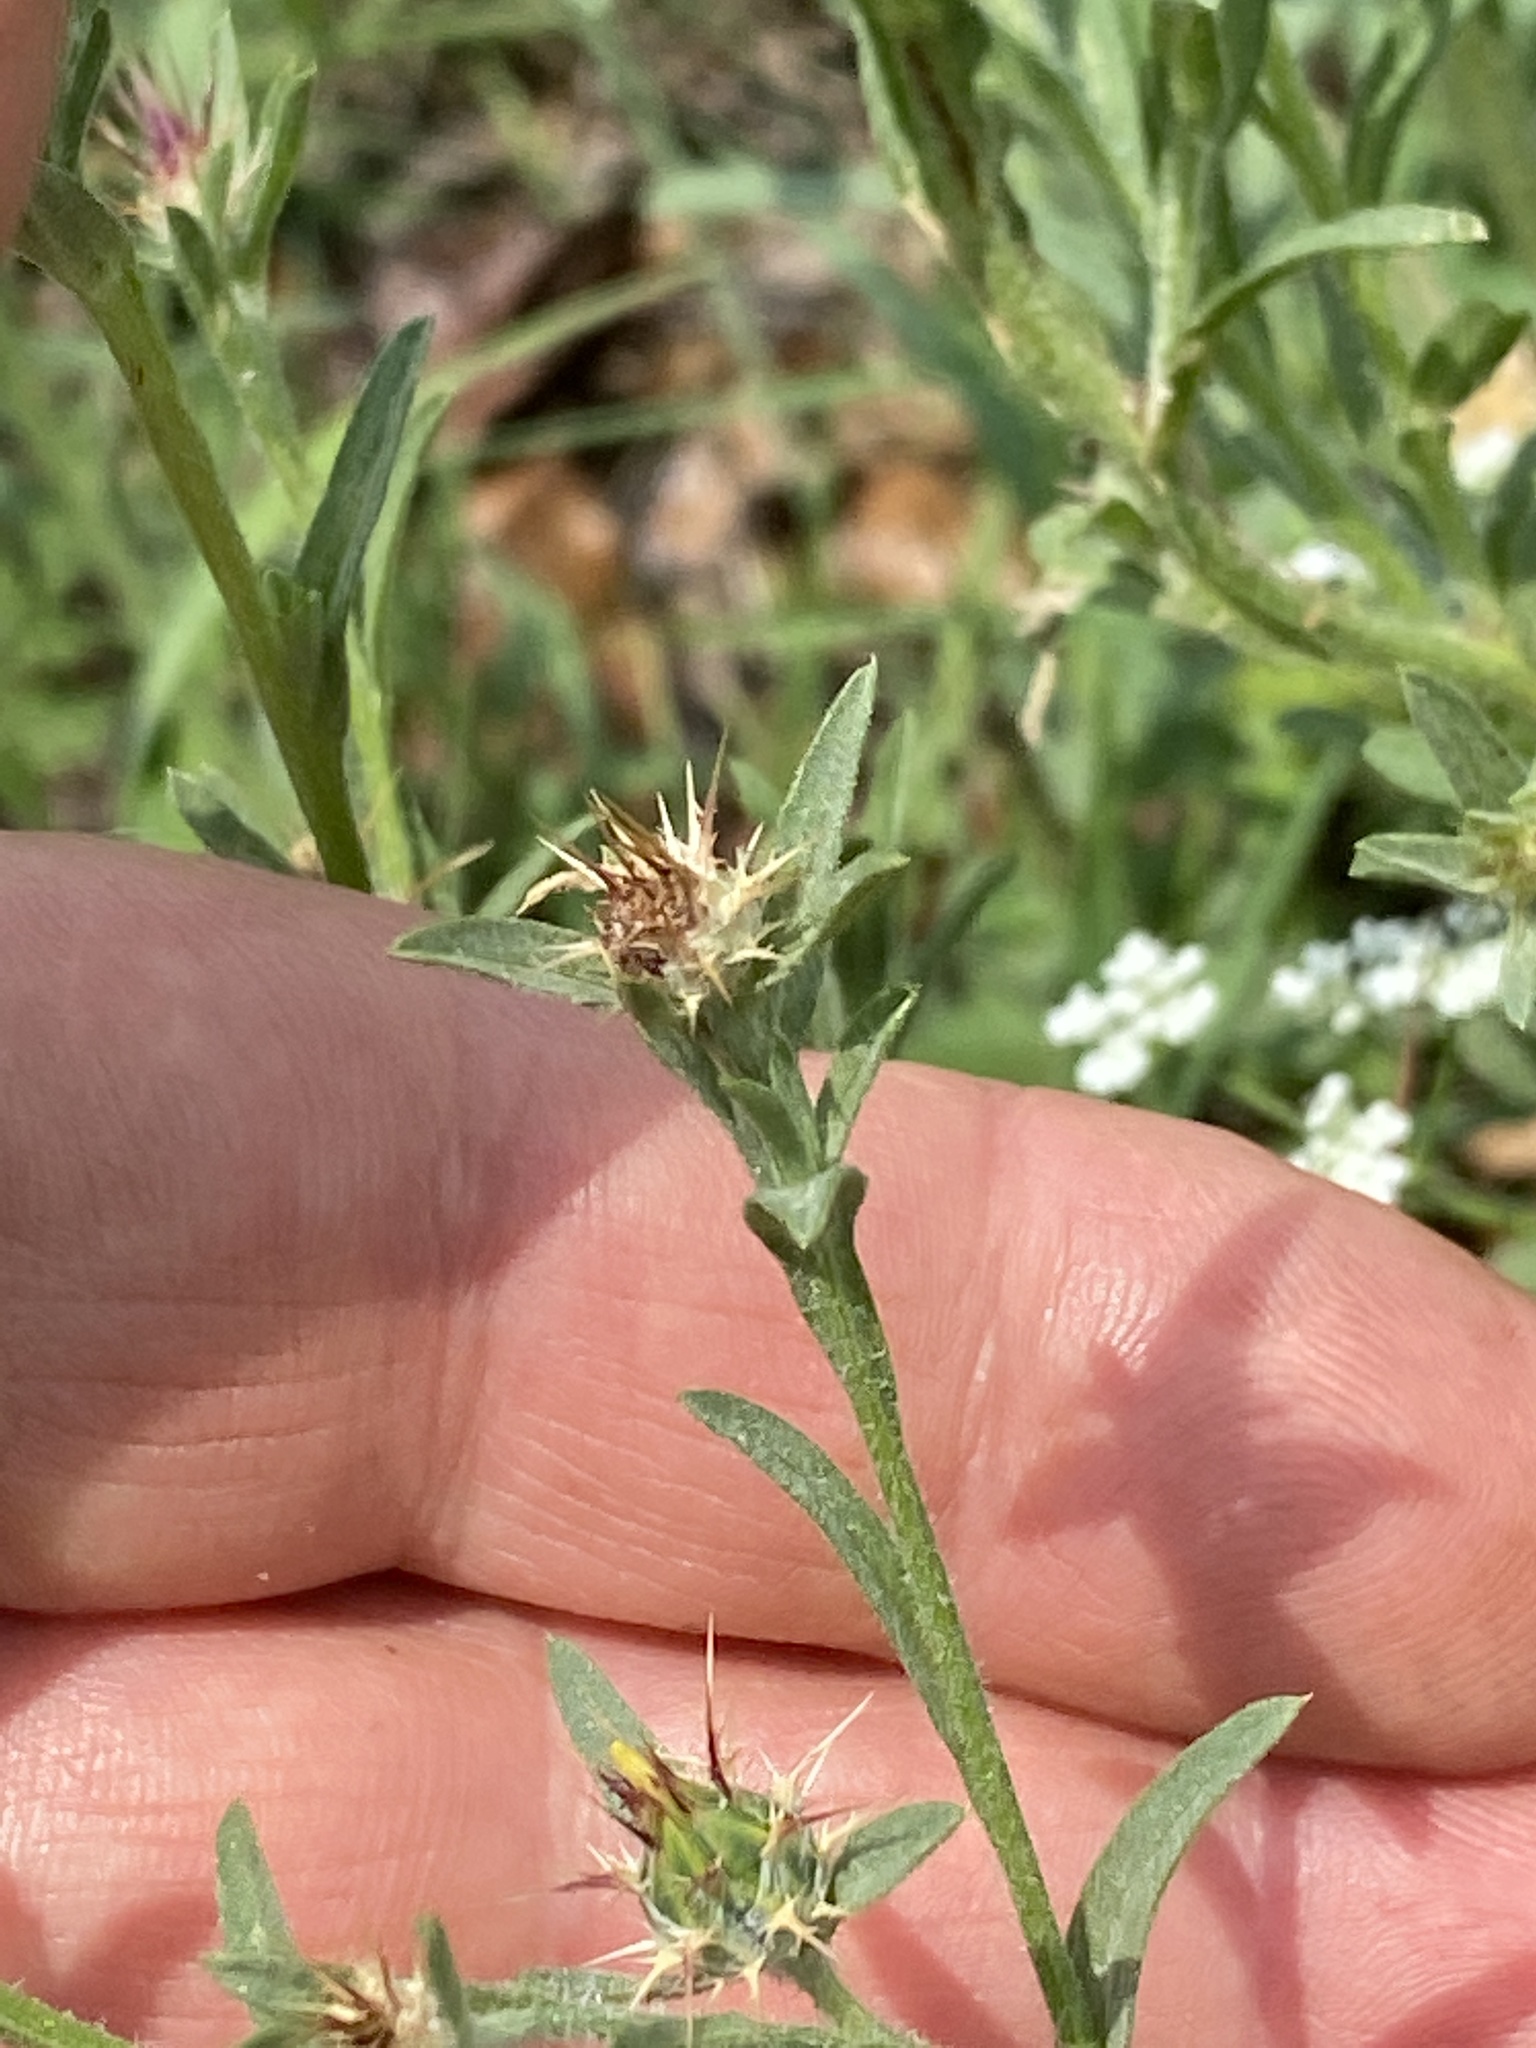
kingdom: Plantae
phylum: Tracheophyta
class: Magnoliopsida
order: Asterales
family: Asteraceae
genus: Centaurea
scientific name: Centaurea melitensis
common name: Maltese star-thistle
